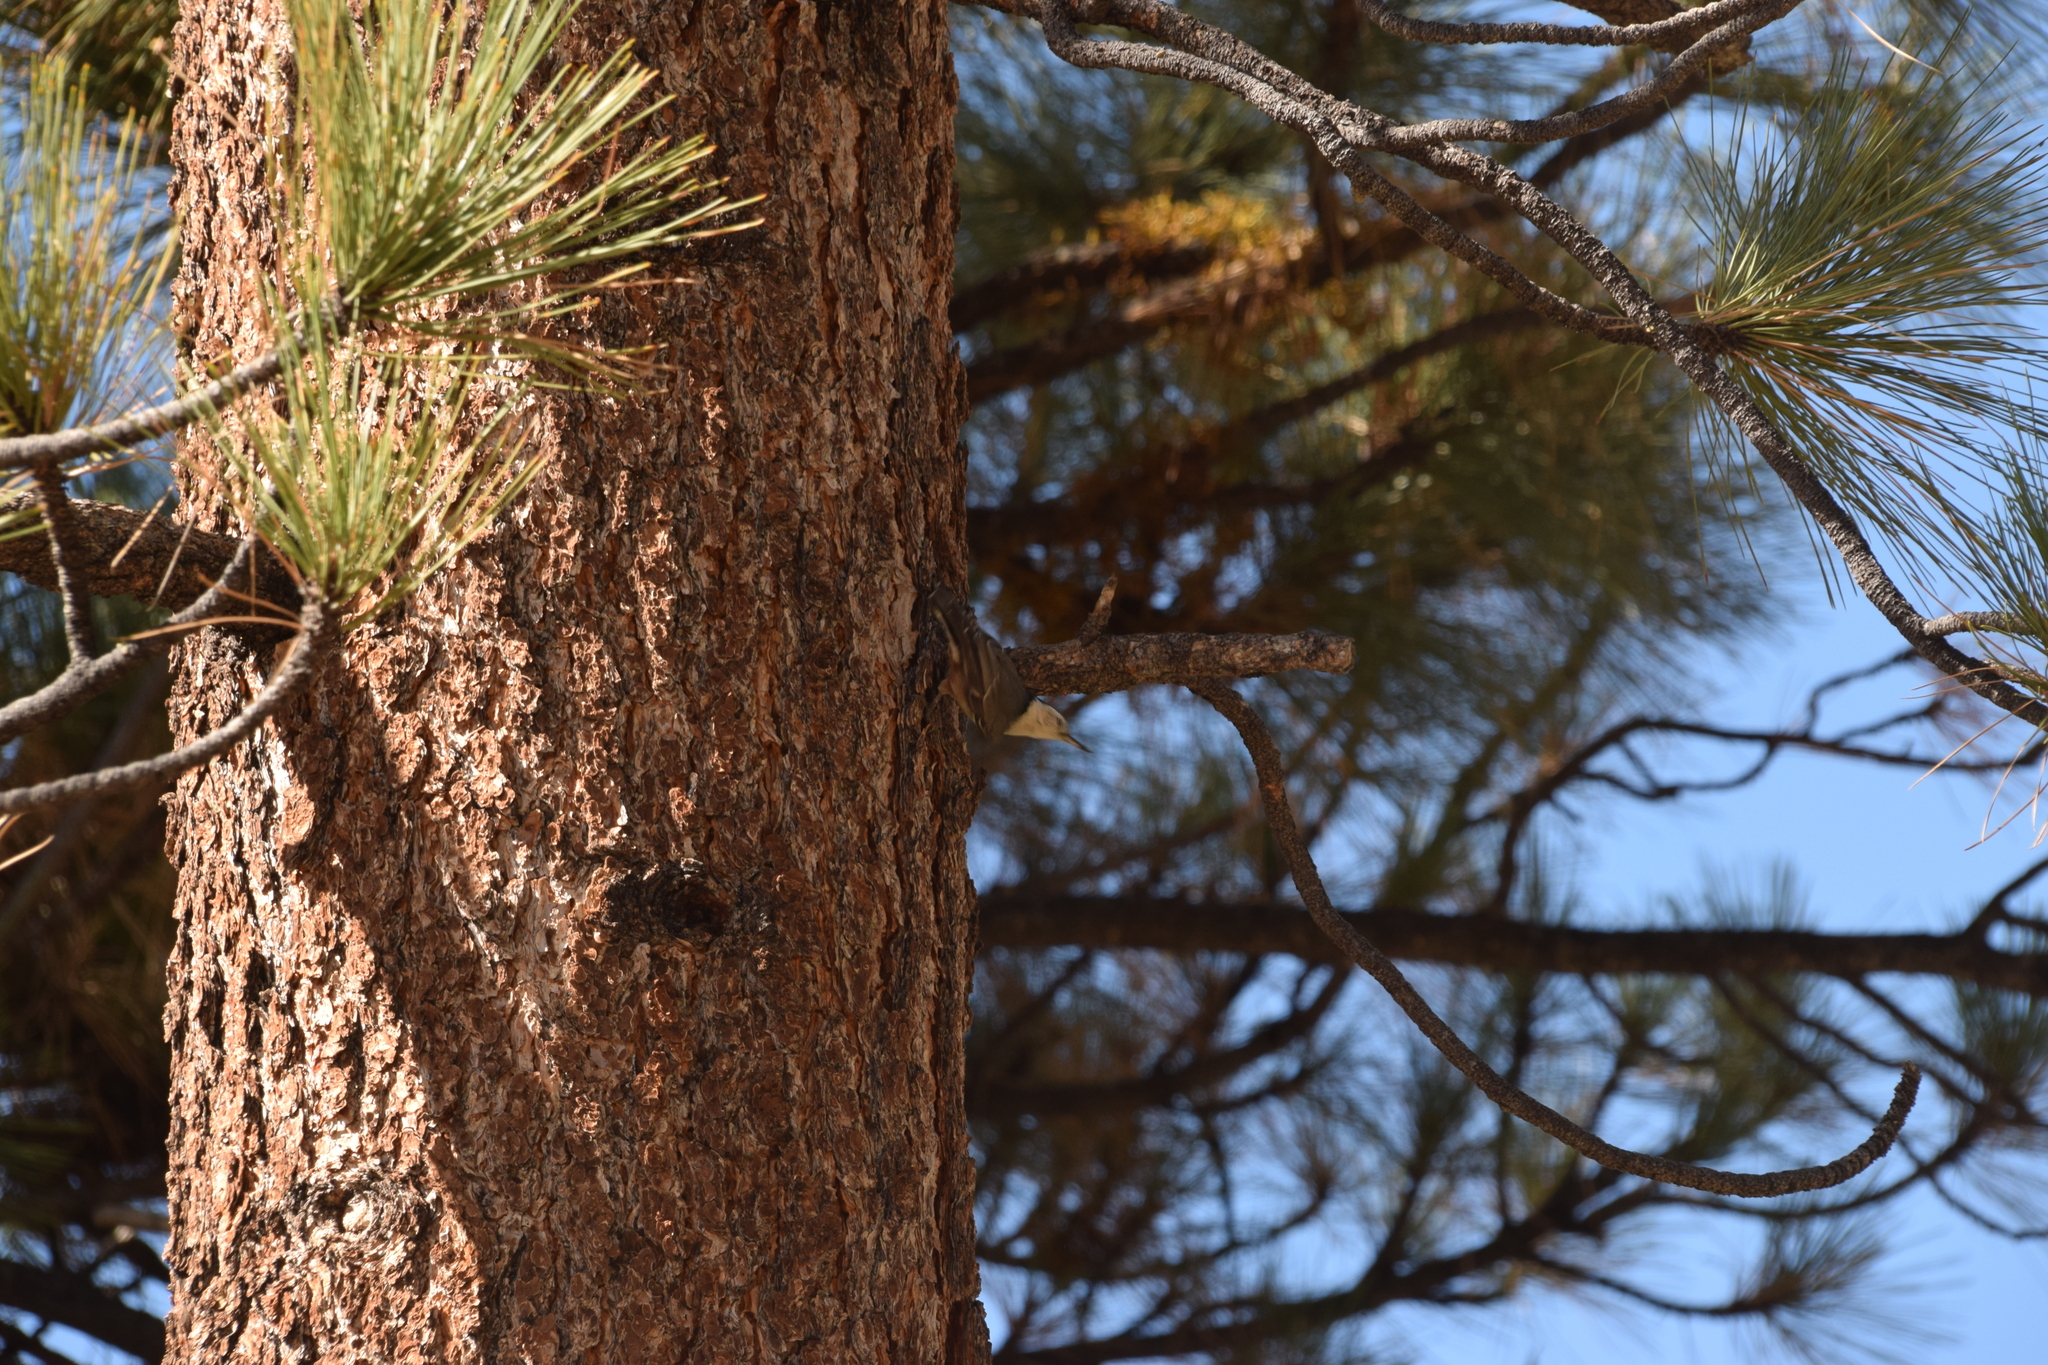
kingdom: Animalia
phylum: Chordata
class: Aves
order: Passeriformes
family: Sittidae
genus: Sitta
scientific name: Sitta carolinensis
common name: White-breasted nuthatch
